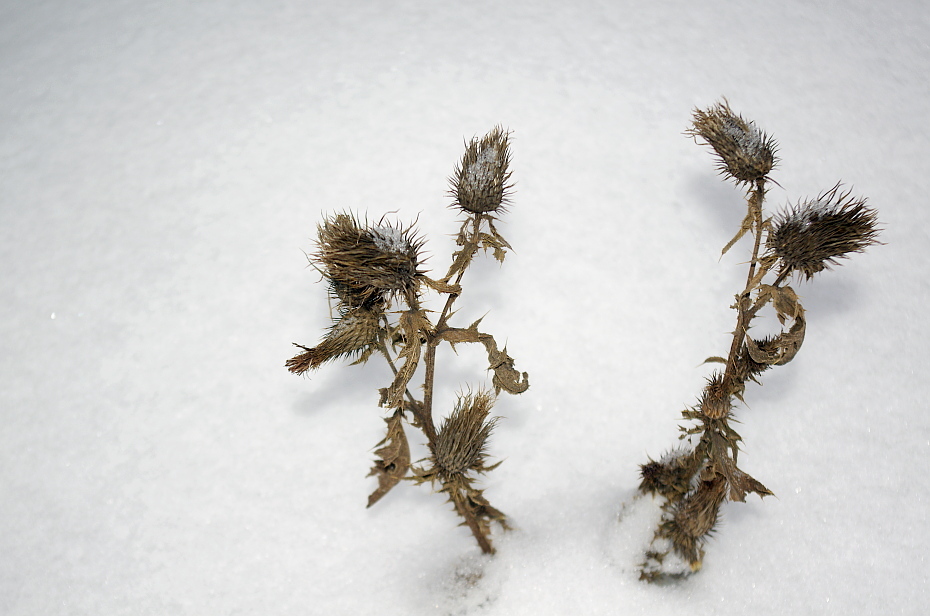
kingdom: Plantae
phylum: Tracheophyta
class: Magnoliopsida
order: Asterales
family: Asteraceae
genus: Cirsium
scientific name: Cirsium vulgare
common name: Bull thistle
